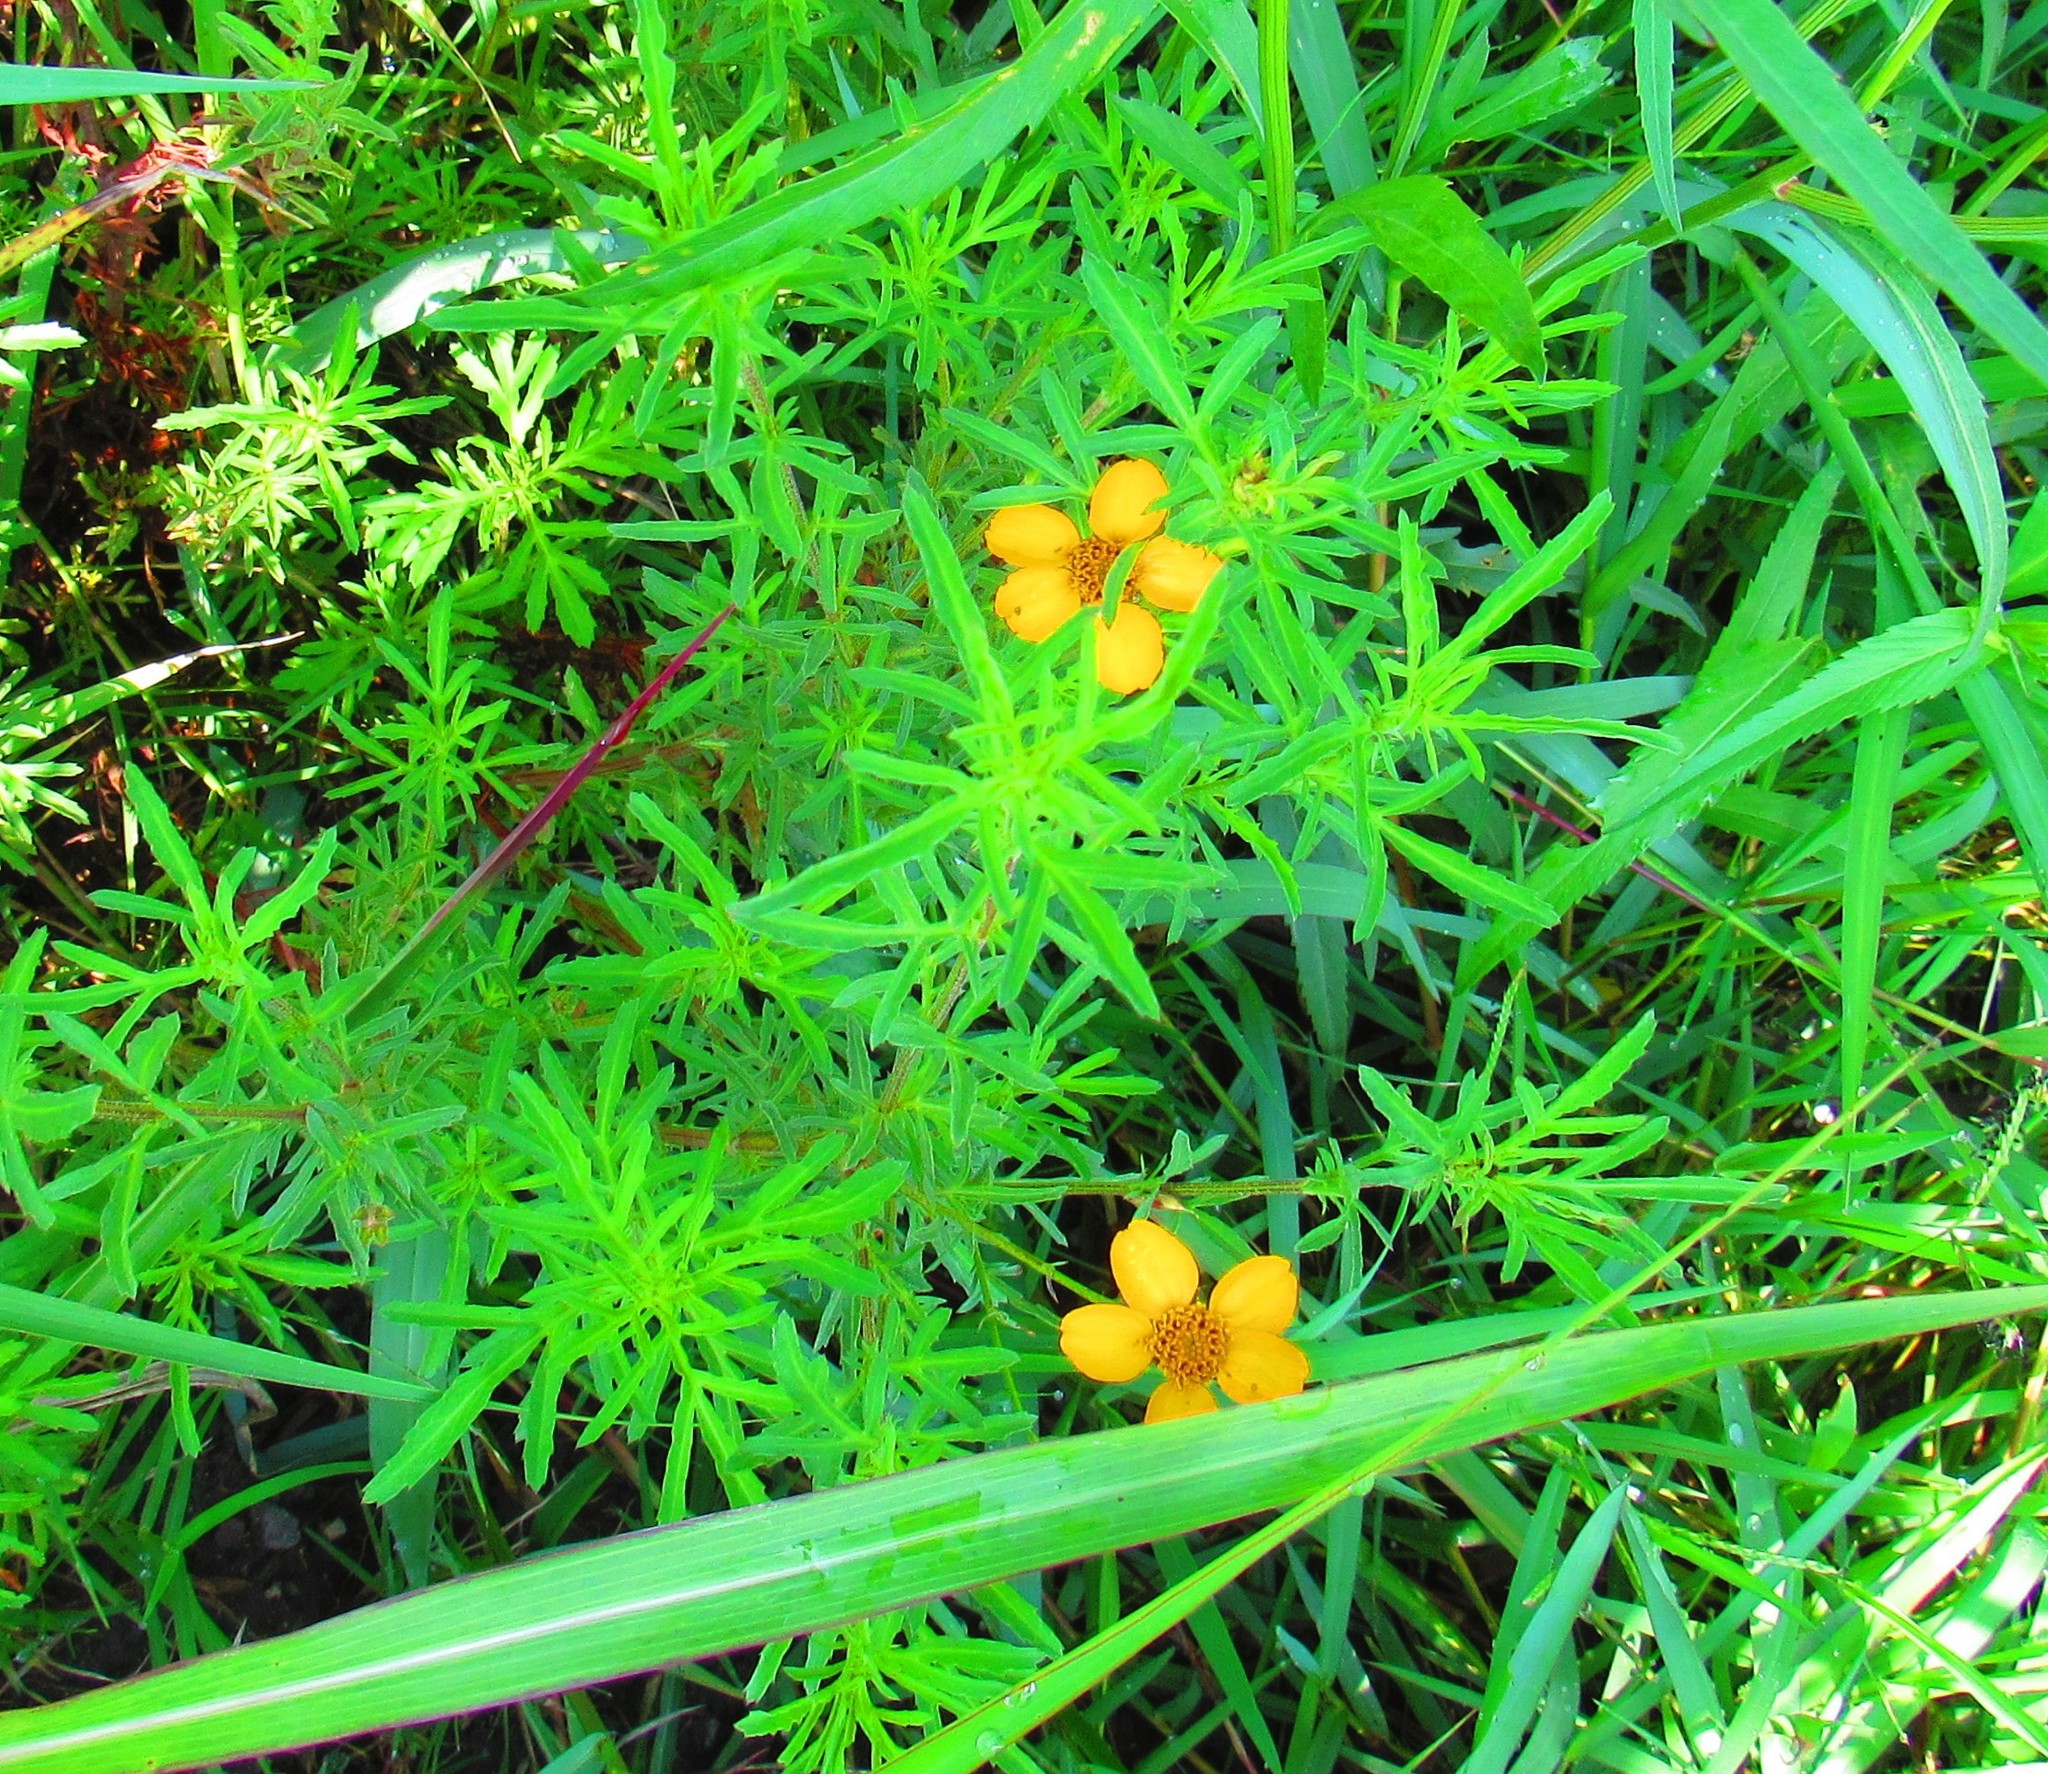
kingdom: Plantae
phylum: Tracheophyta
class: Magnoliopsida
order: Asterales
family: Asteraceae
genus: Dyssodia
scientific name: Dyssodia pinnata
